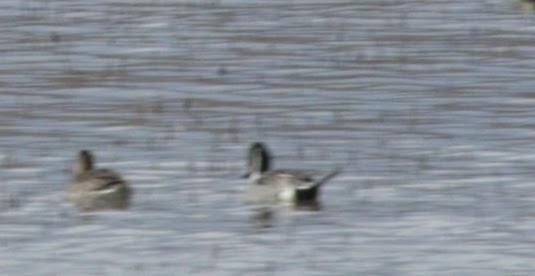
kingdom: Animalia
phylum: Chordata
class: Aves
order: Anseriformes
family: Anatidae
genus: Anas
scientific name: Anas acuta
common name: Northern pintail
